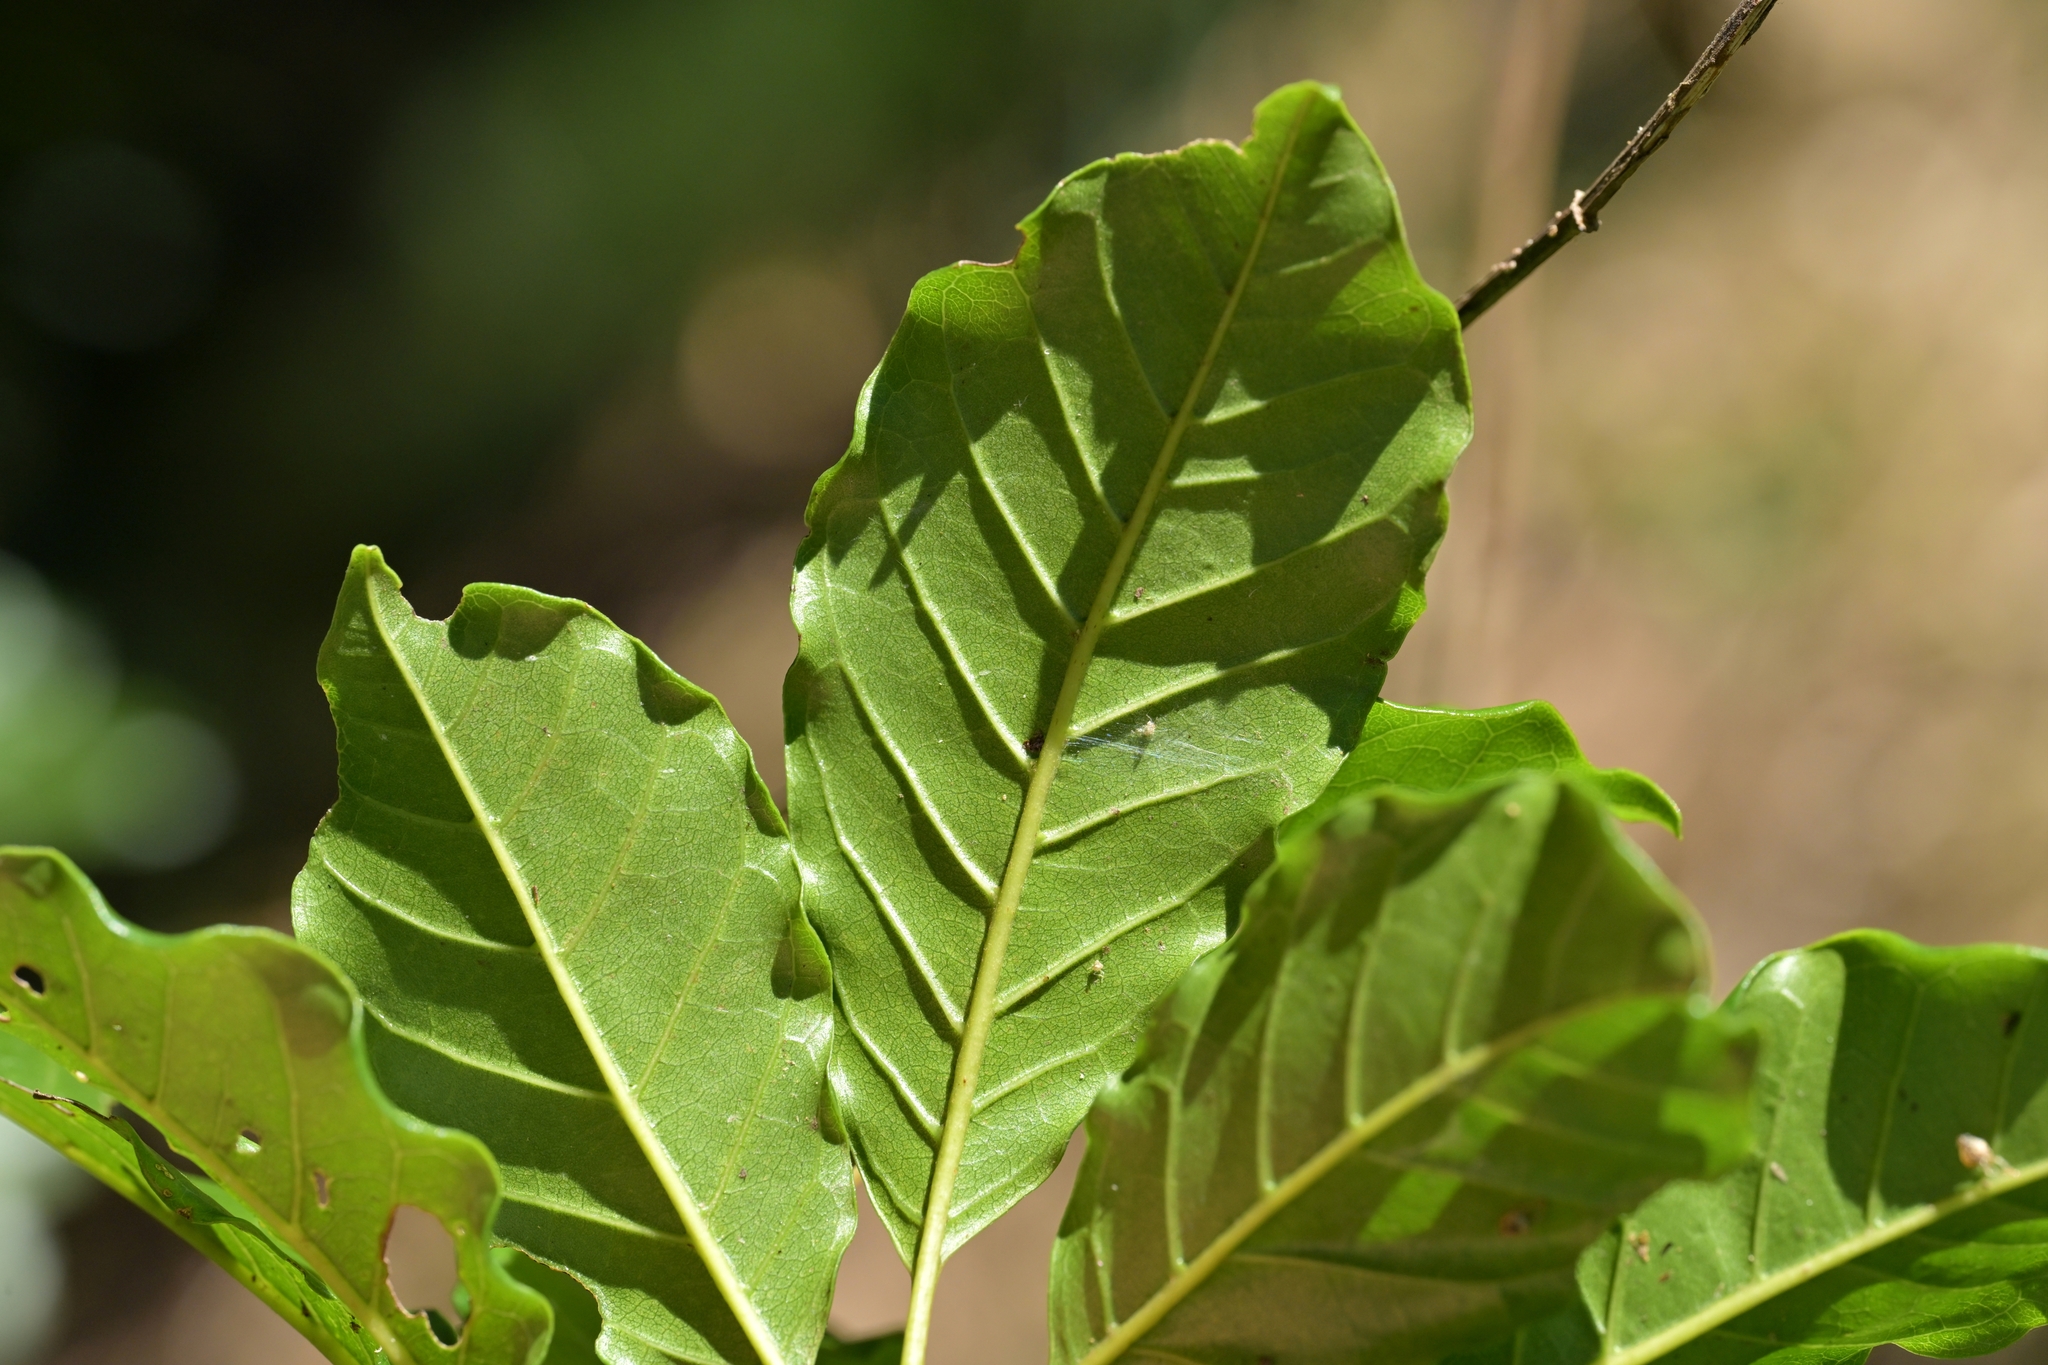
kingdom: Plantae
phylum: Tracheophyta
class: Magnoliopsida
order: Lamiales
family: Lamiaceae
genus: Vitex
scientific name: Vitex lucens
